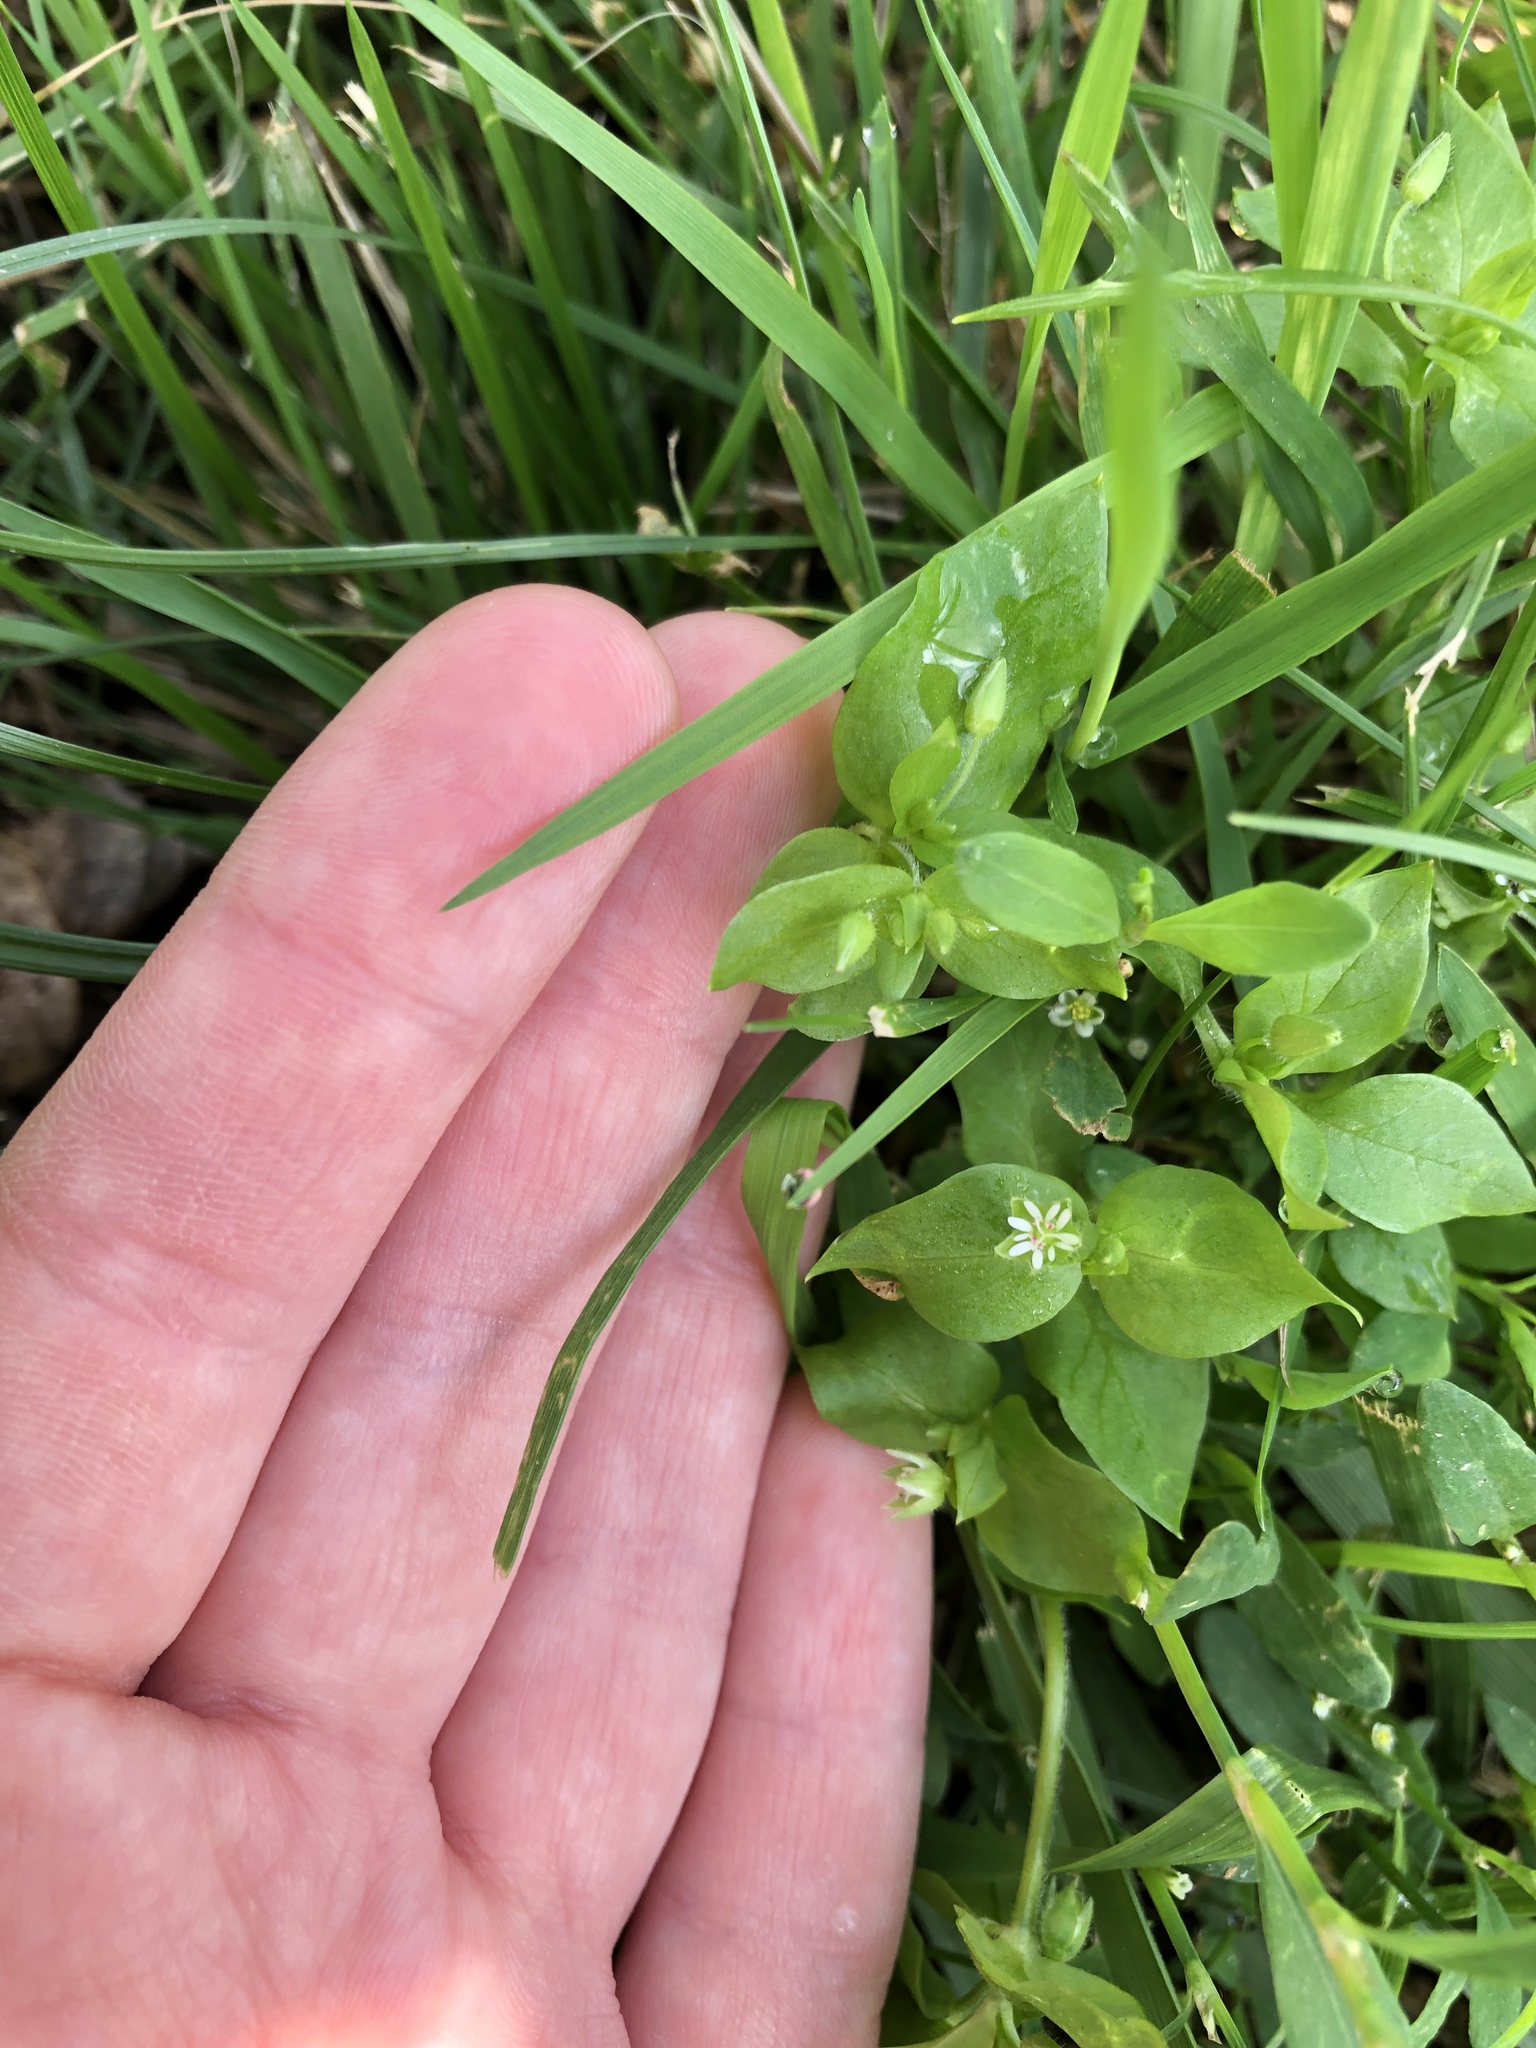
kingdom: Plantae
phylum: Tracheophyta
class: Magnoliopsida
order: Caryophyllales
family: Caryophyllaceae
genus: Stellaria
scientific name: Stellaria media
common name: Common chickweed
